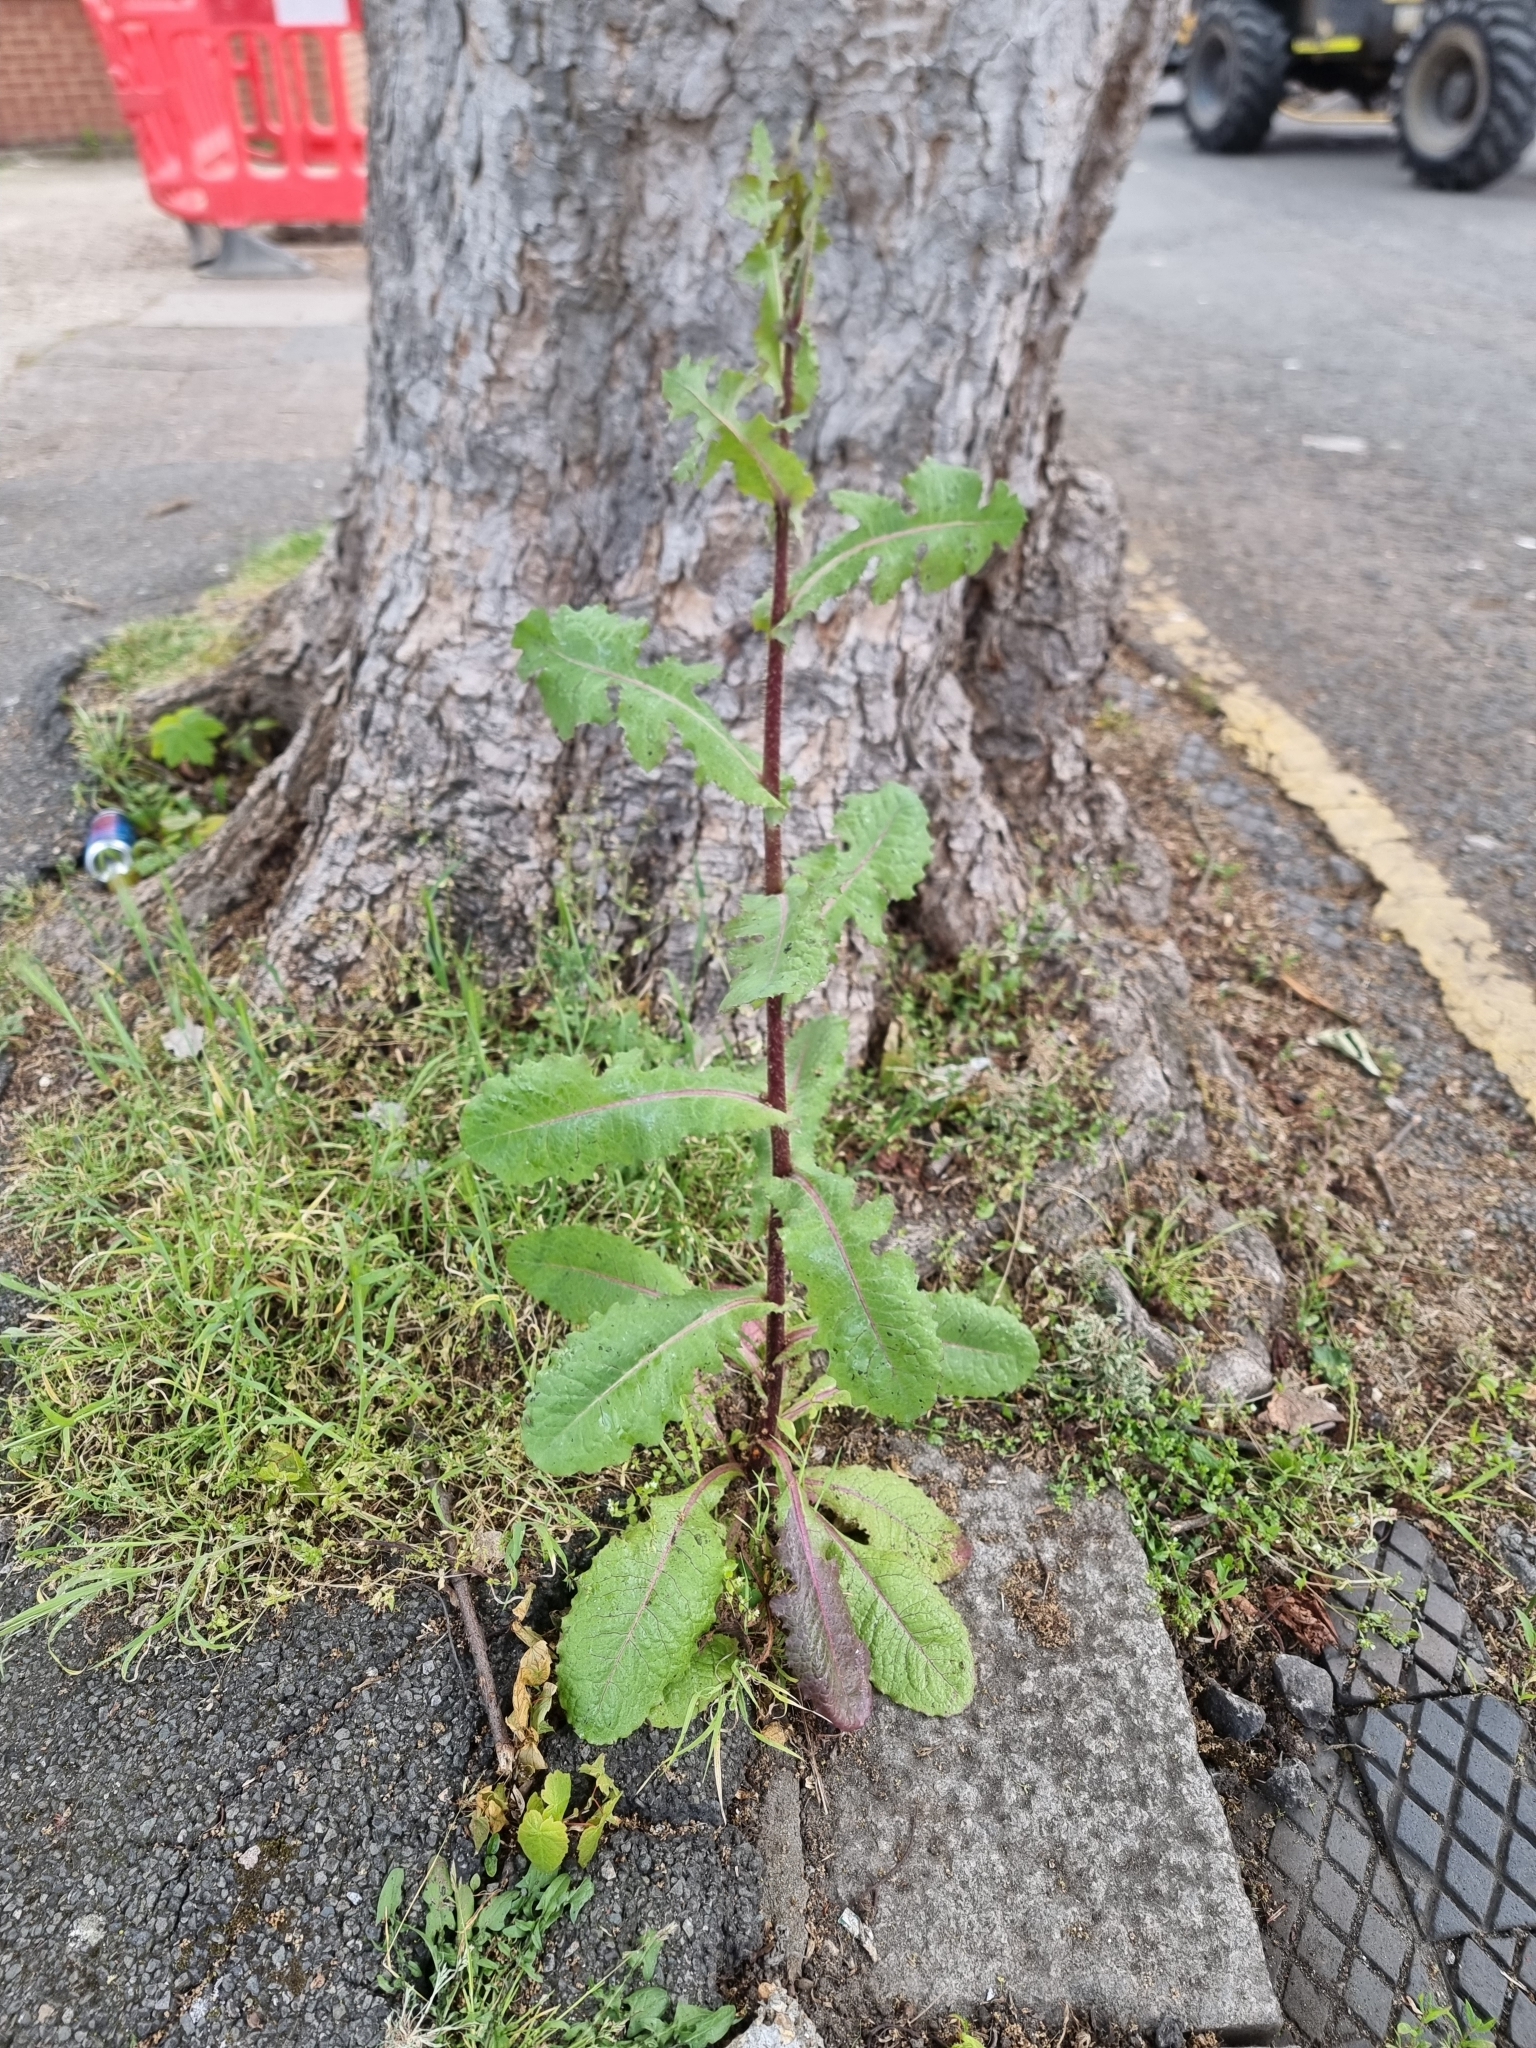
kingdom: Plantae
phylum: Tracheophyta
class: Magnoliopsida
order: Asterales
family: Asteraceae
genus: Lactuca
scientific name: Lactuca virosa
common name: Great lettuce
